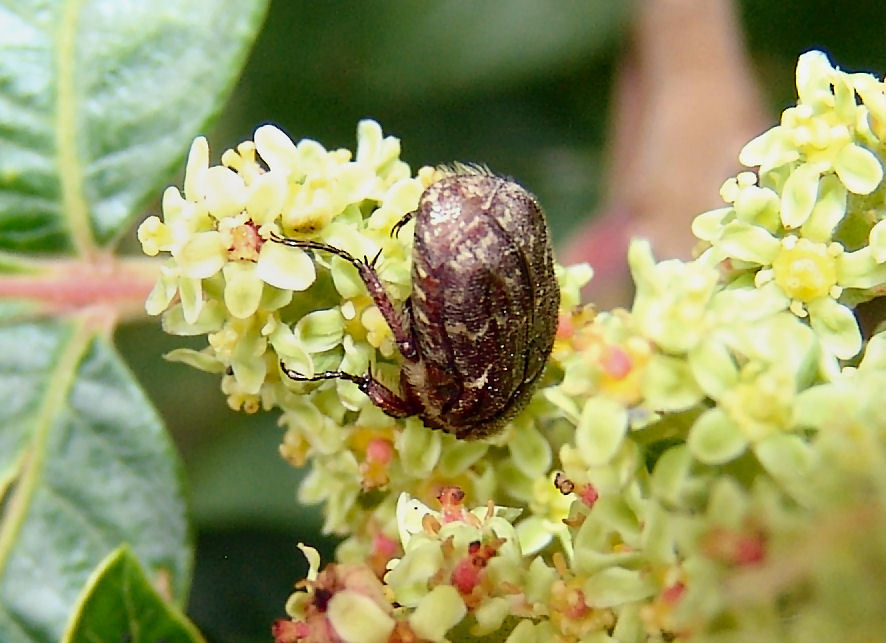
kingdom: Animalia
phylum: Arthropoda
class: Insecta
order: Coleoptera
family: Scarabaeidae
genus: Euphoria
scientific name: Euphoria sepulcralis
